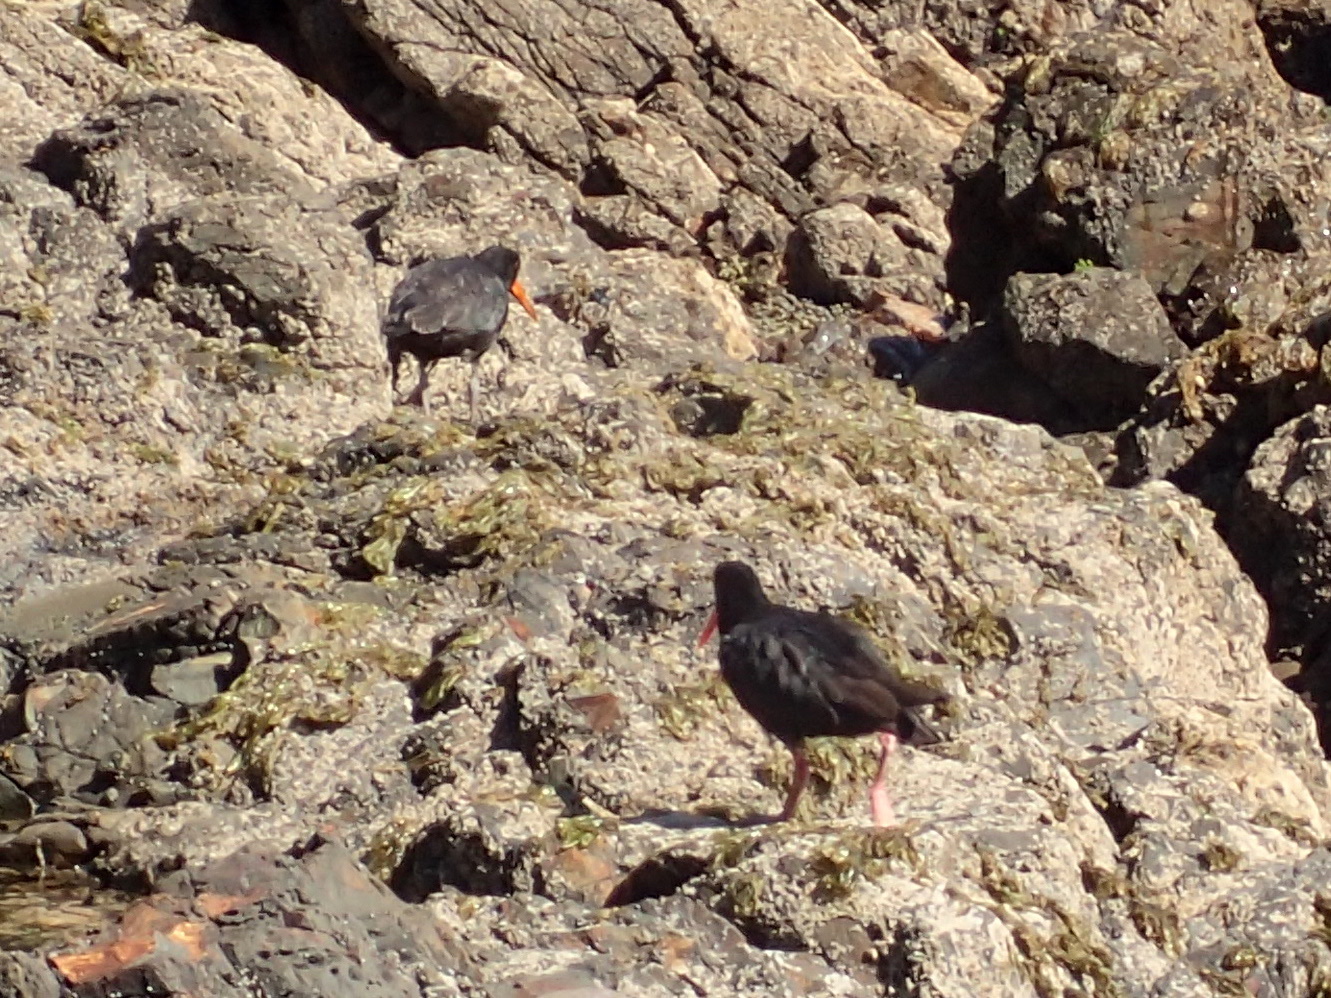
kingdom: Animalia
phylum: Chordata
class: Aves
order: Charadriiformes
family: Haematopodidae
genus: Haematopus
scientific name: Haematopus unicolor
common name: Variable oystercatcher
